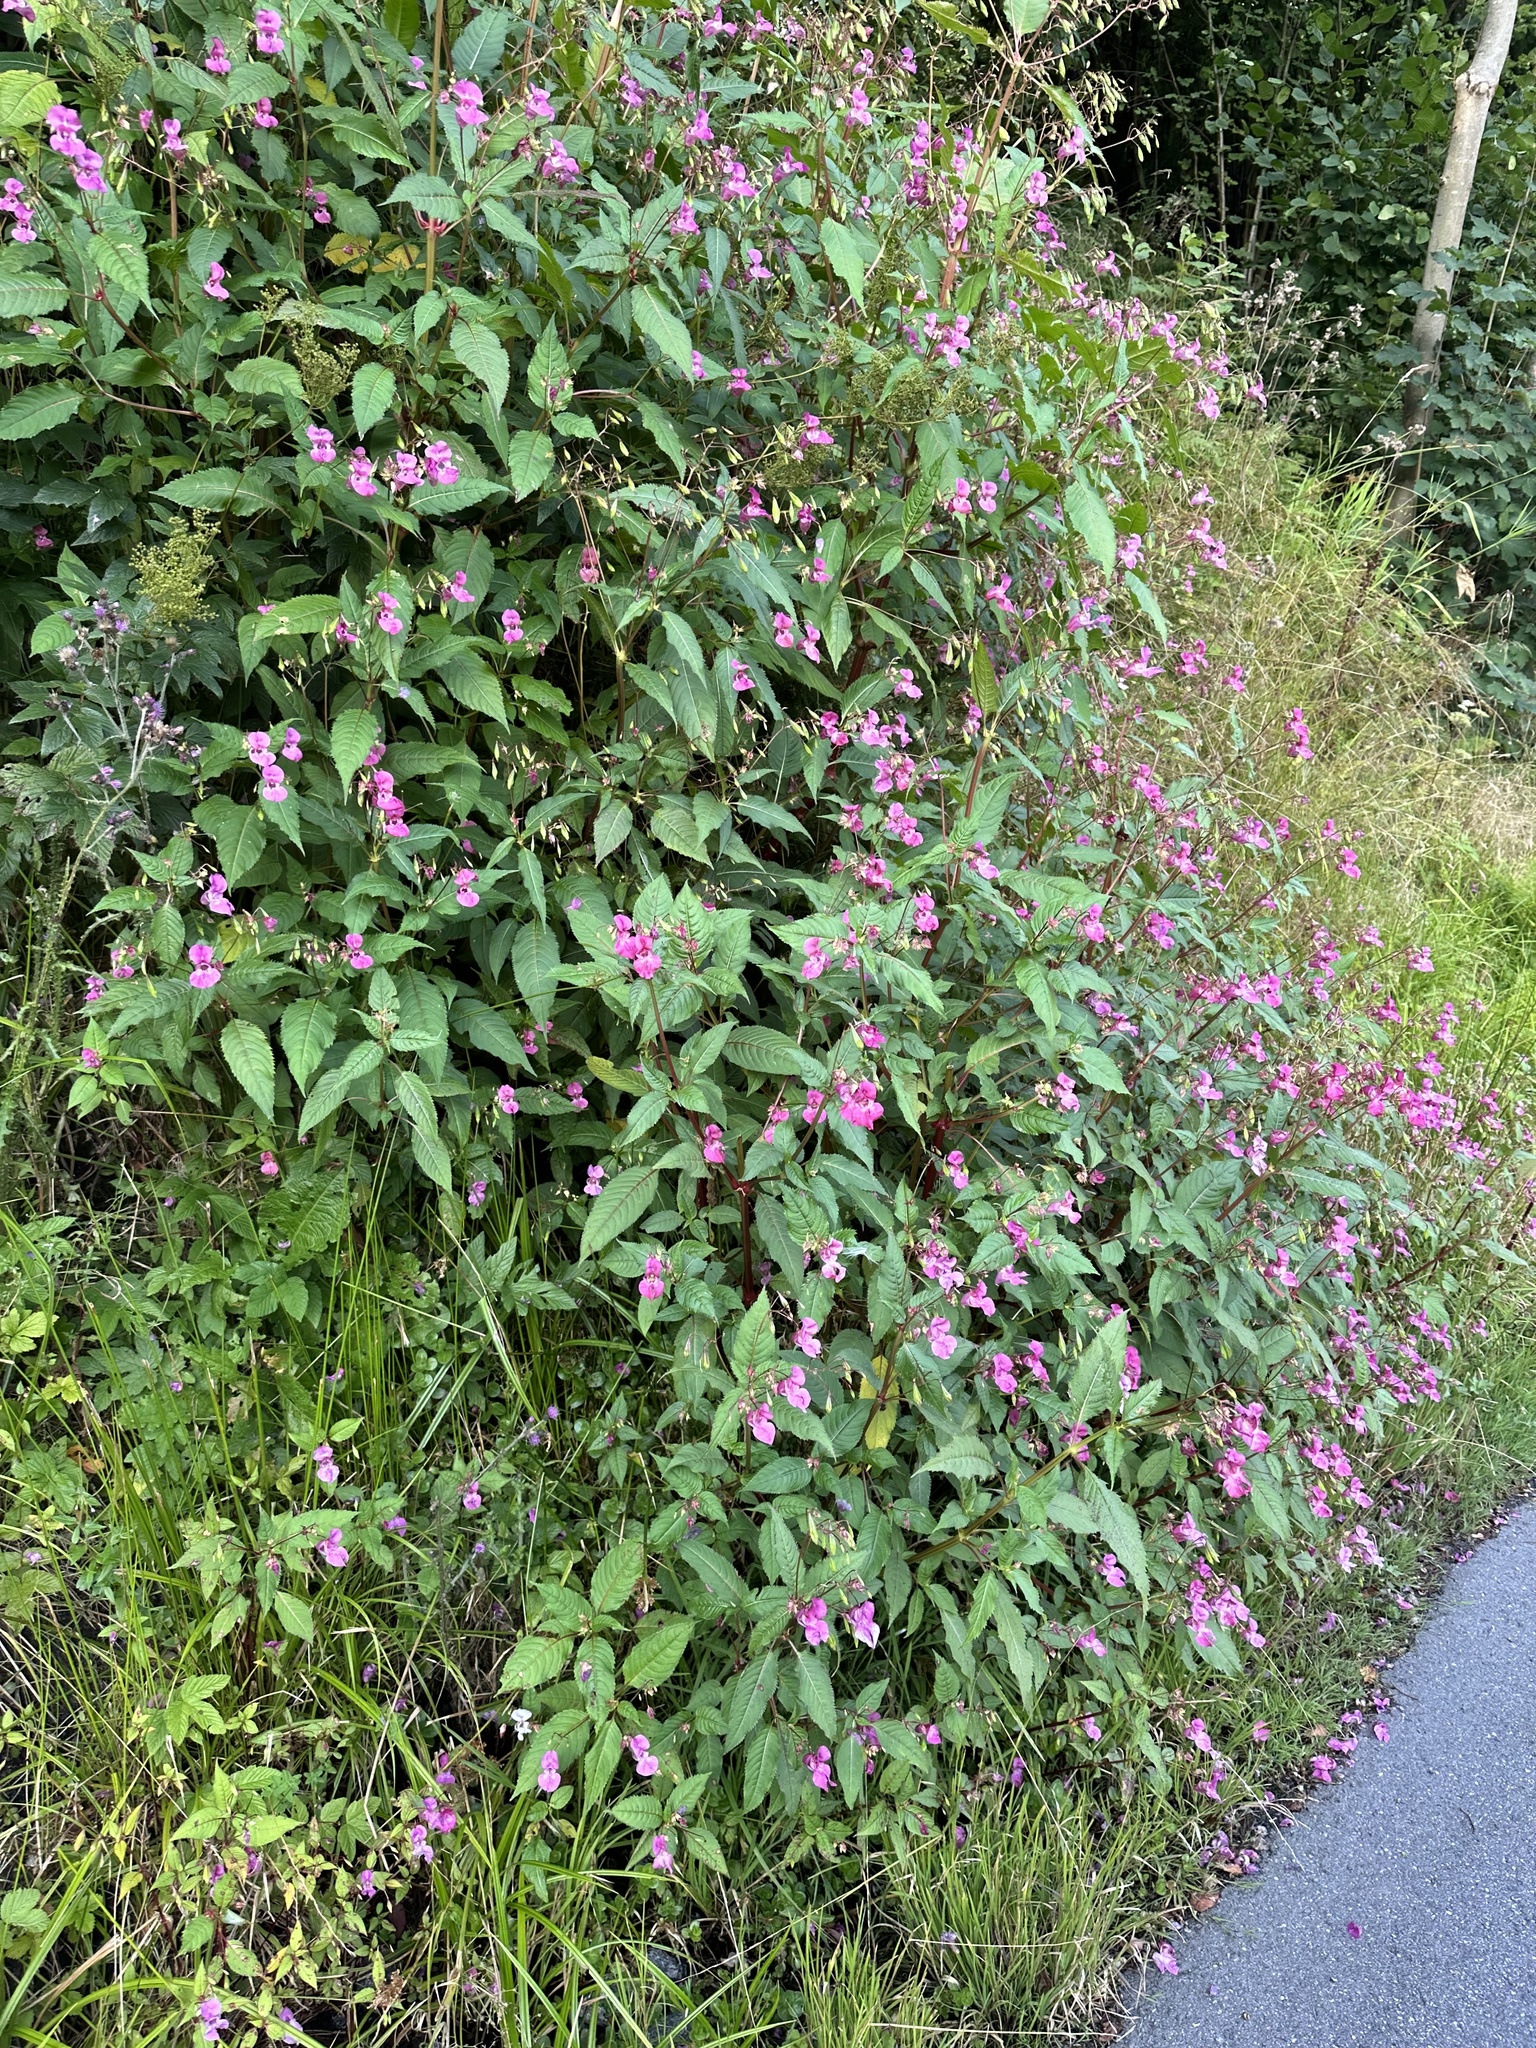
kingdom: Plantae
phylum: Tracheophyta
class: Magnoliopsida
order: Ericales
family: Balsaminaceae
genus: Impatiens
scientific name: Impatiens glandulifera
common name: Himalayan balsam
